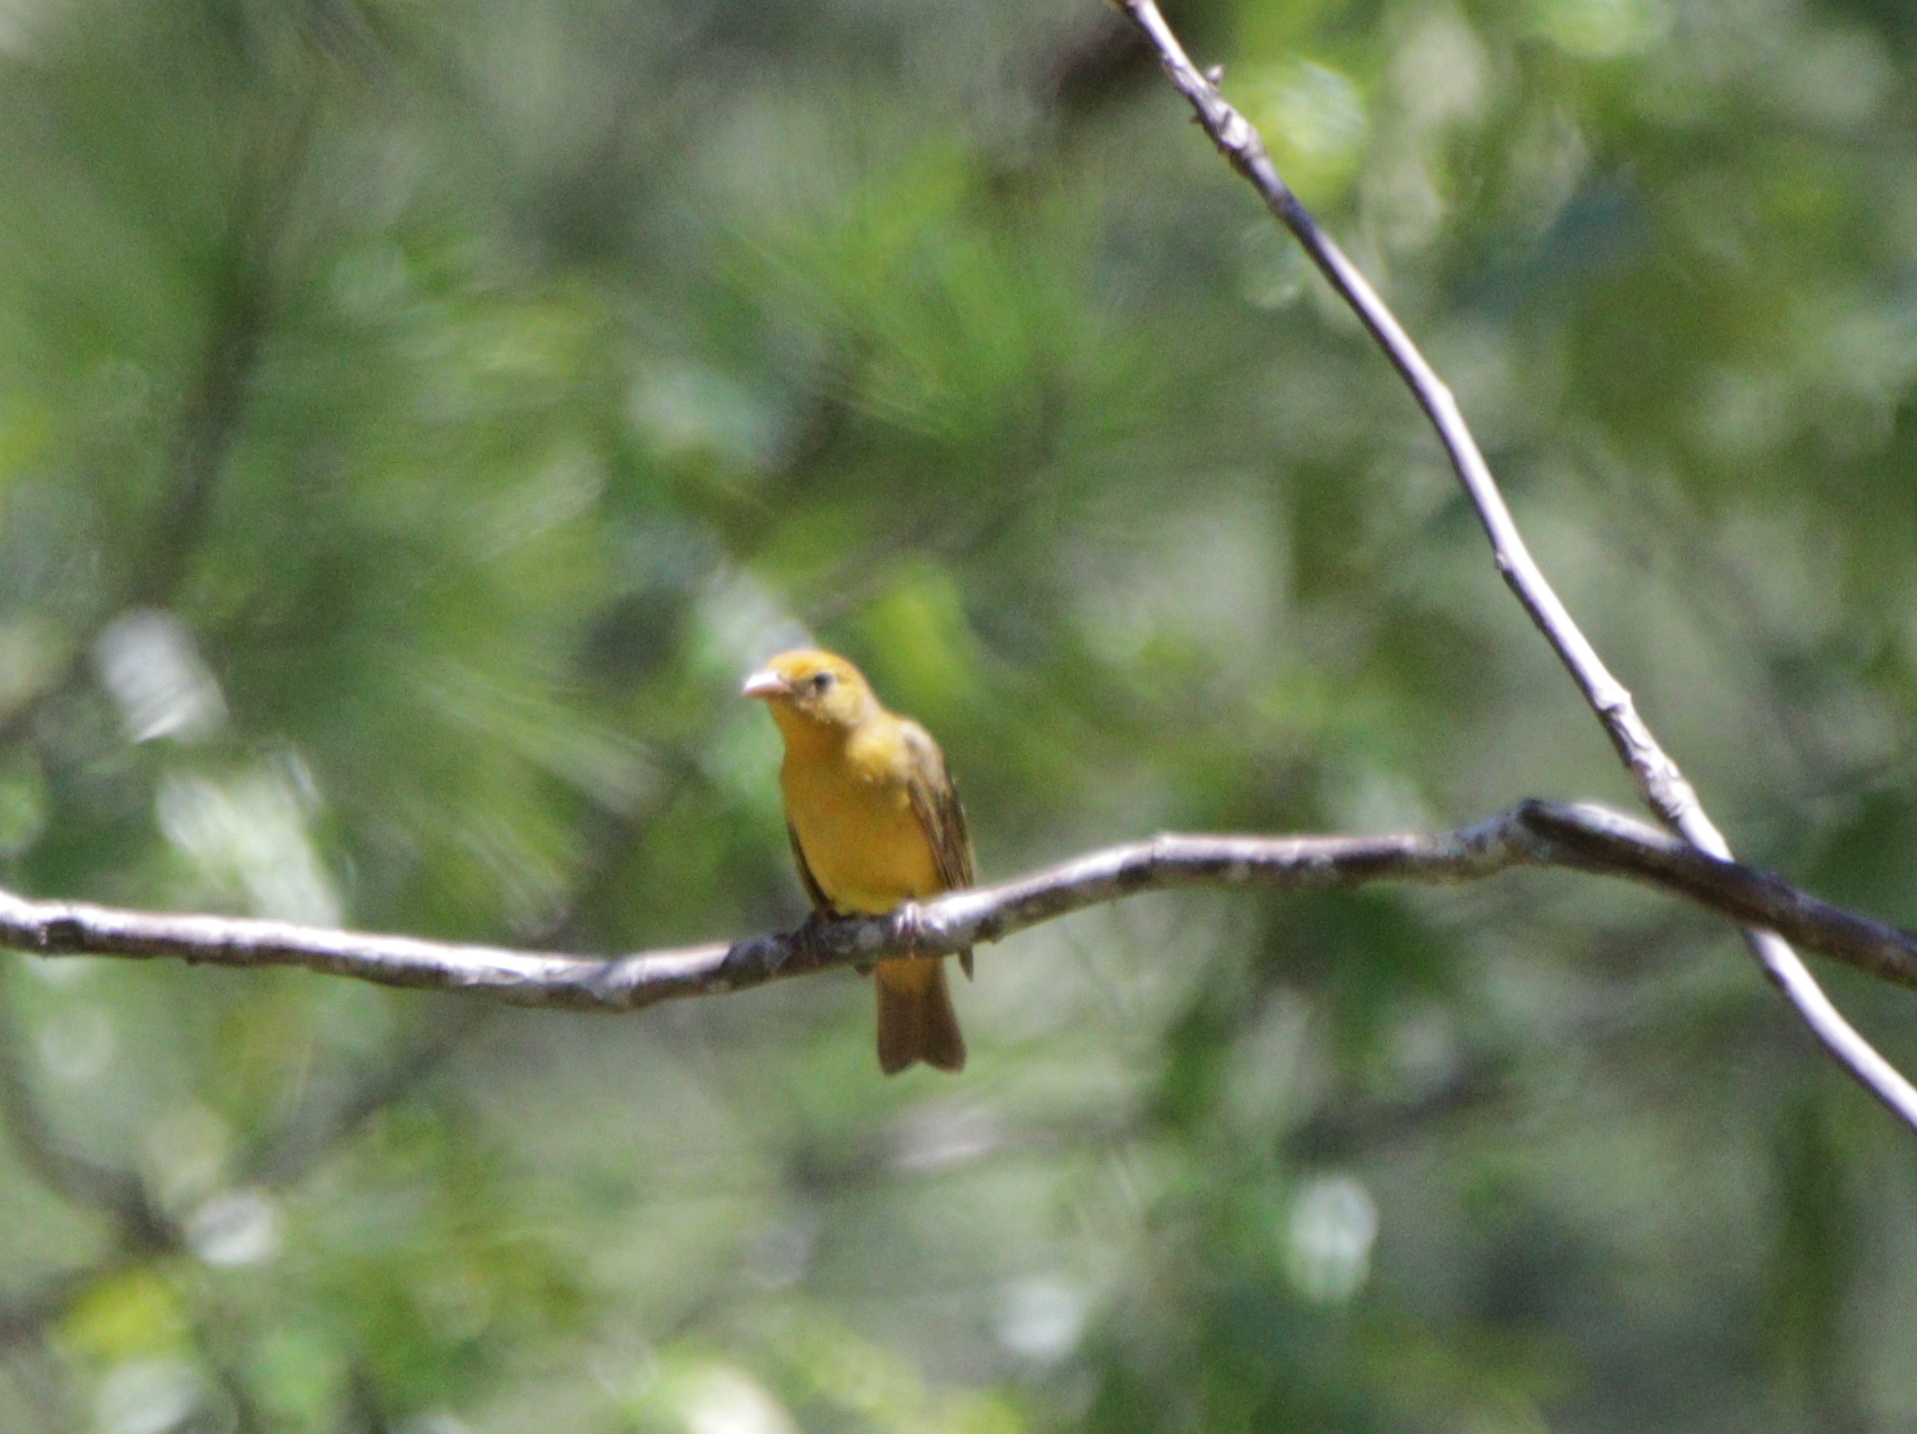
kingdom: Animalia
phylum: Chordata
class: Aves
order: Passeriformes
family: Cardinalidae
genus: Piranga
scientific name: Piranga rubra
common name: Summer tanager
